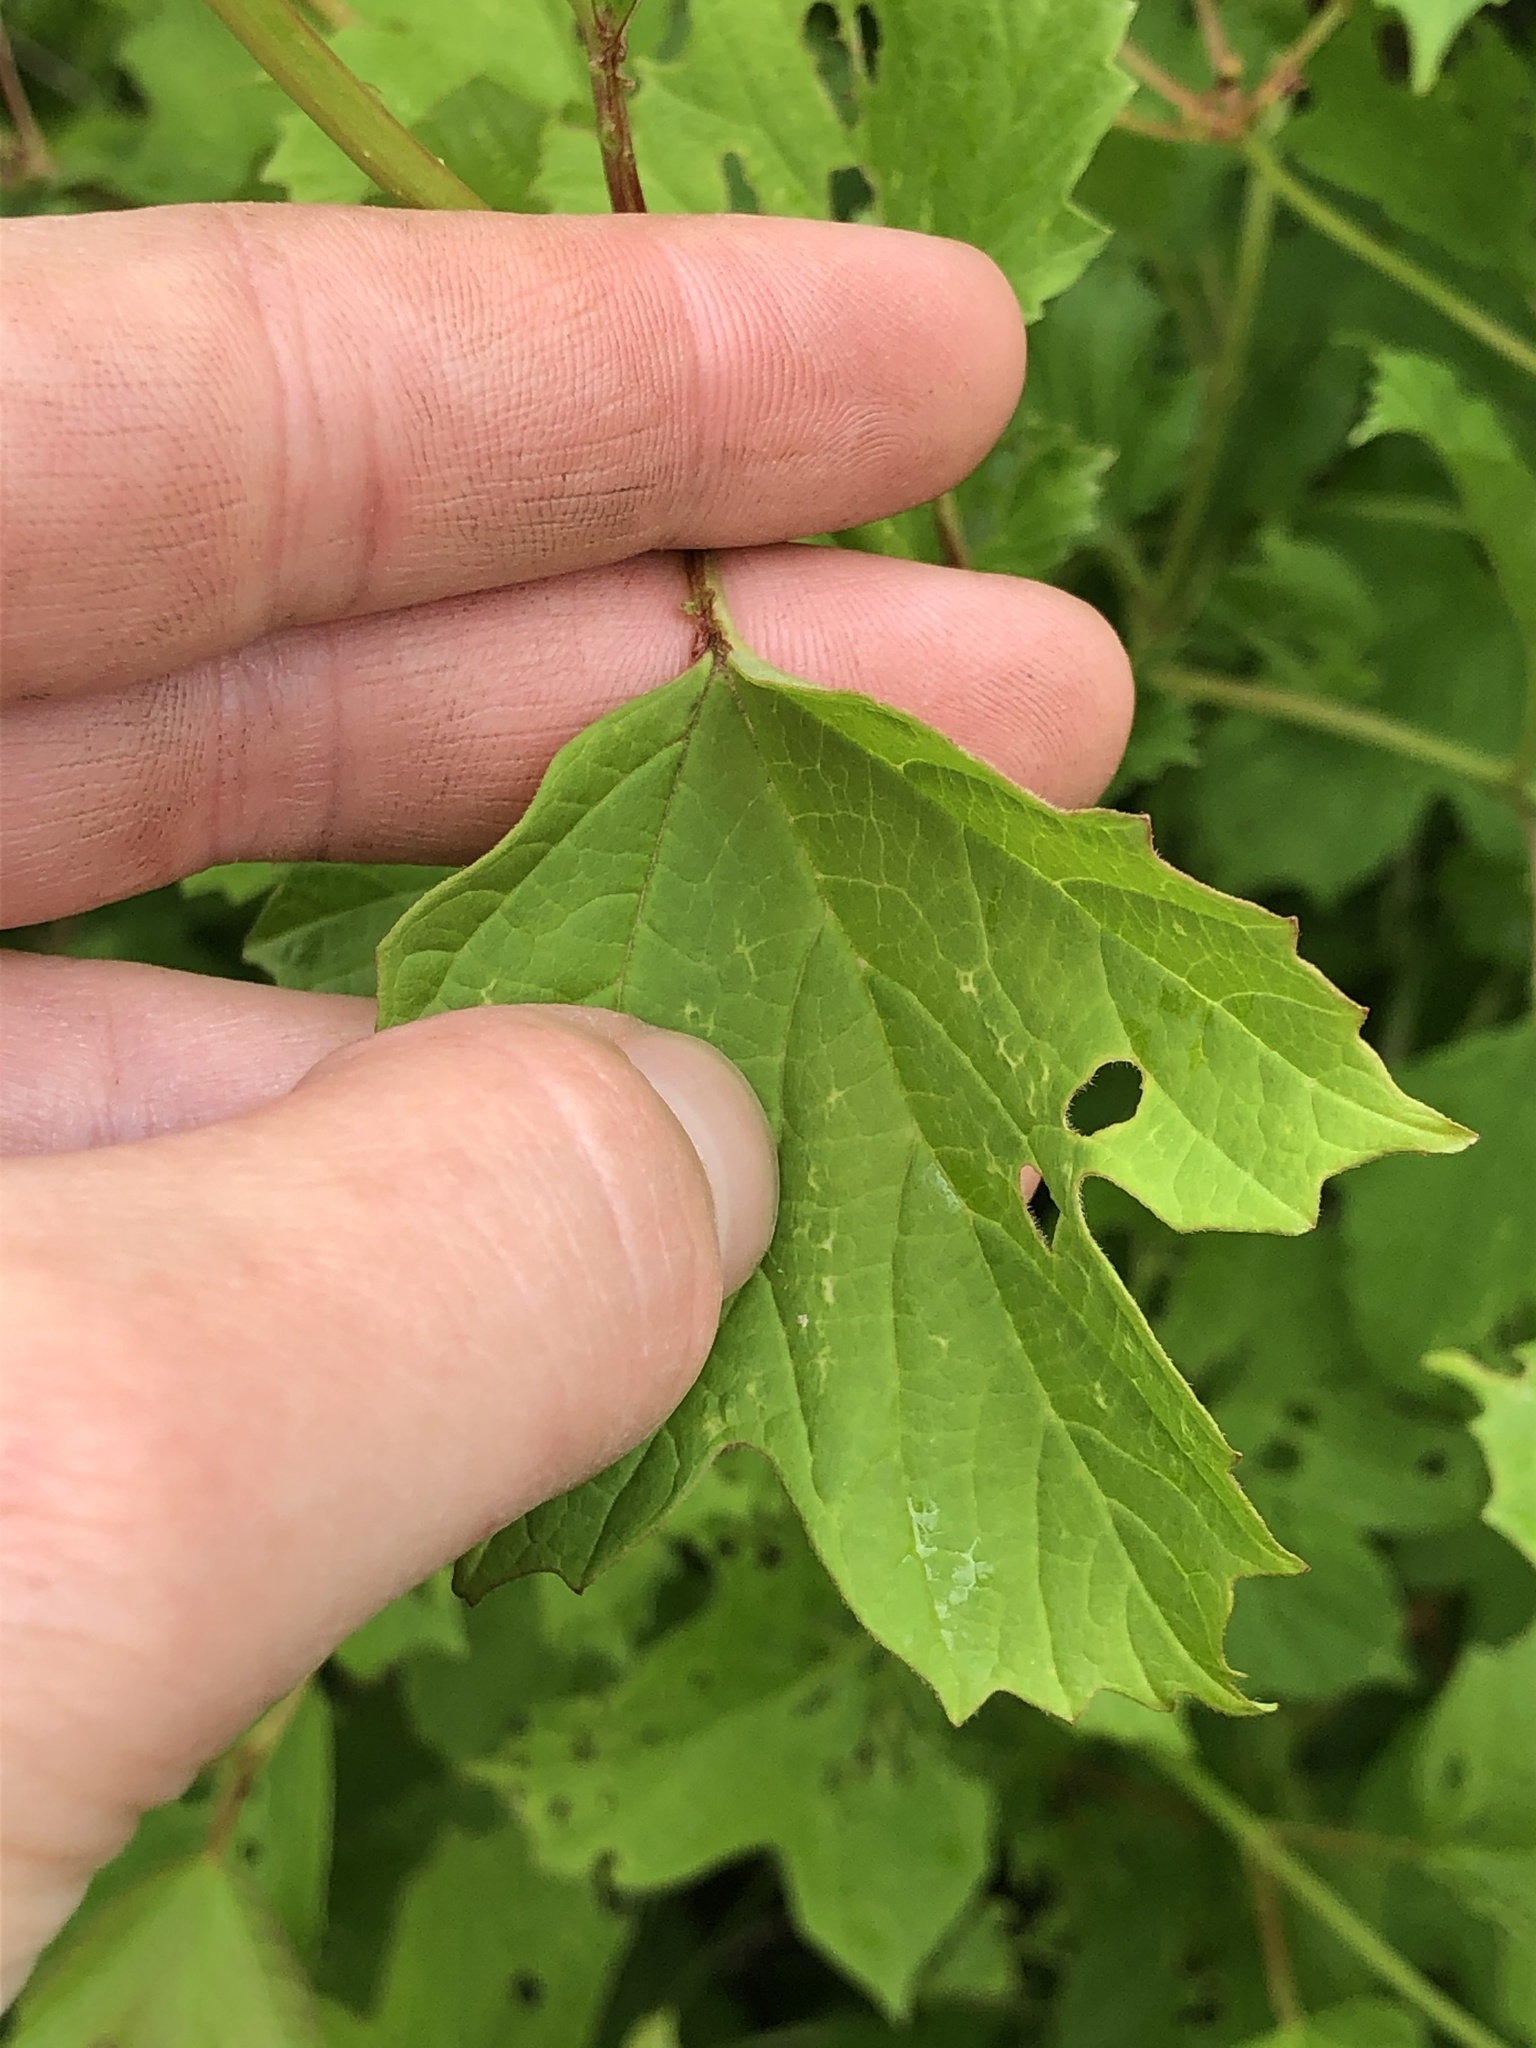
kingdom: Plantae
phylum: Tracheophyta
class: Magnoliopsida
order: Dipsacales
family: Viburnaceae
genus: Viburnum
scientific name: Viburnum opulus
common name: Guelder-rose
